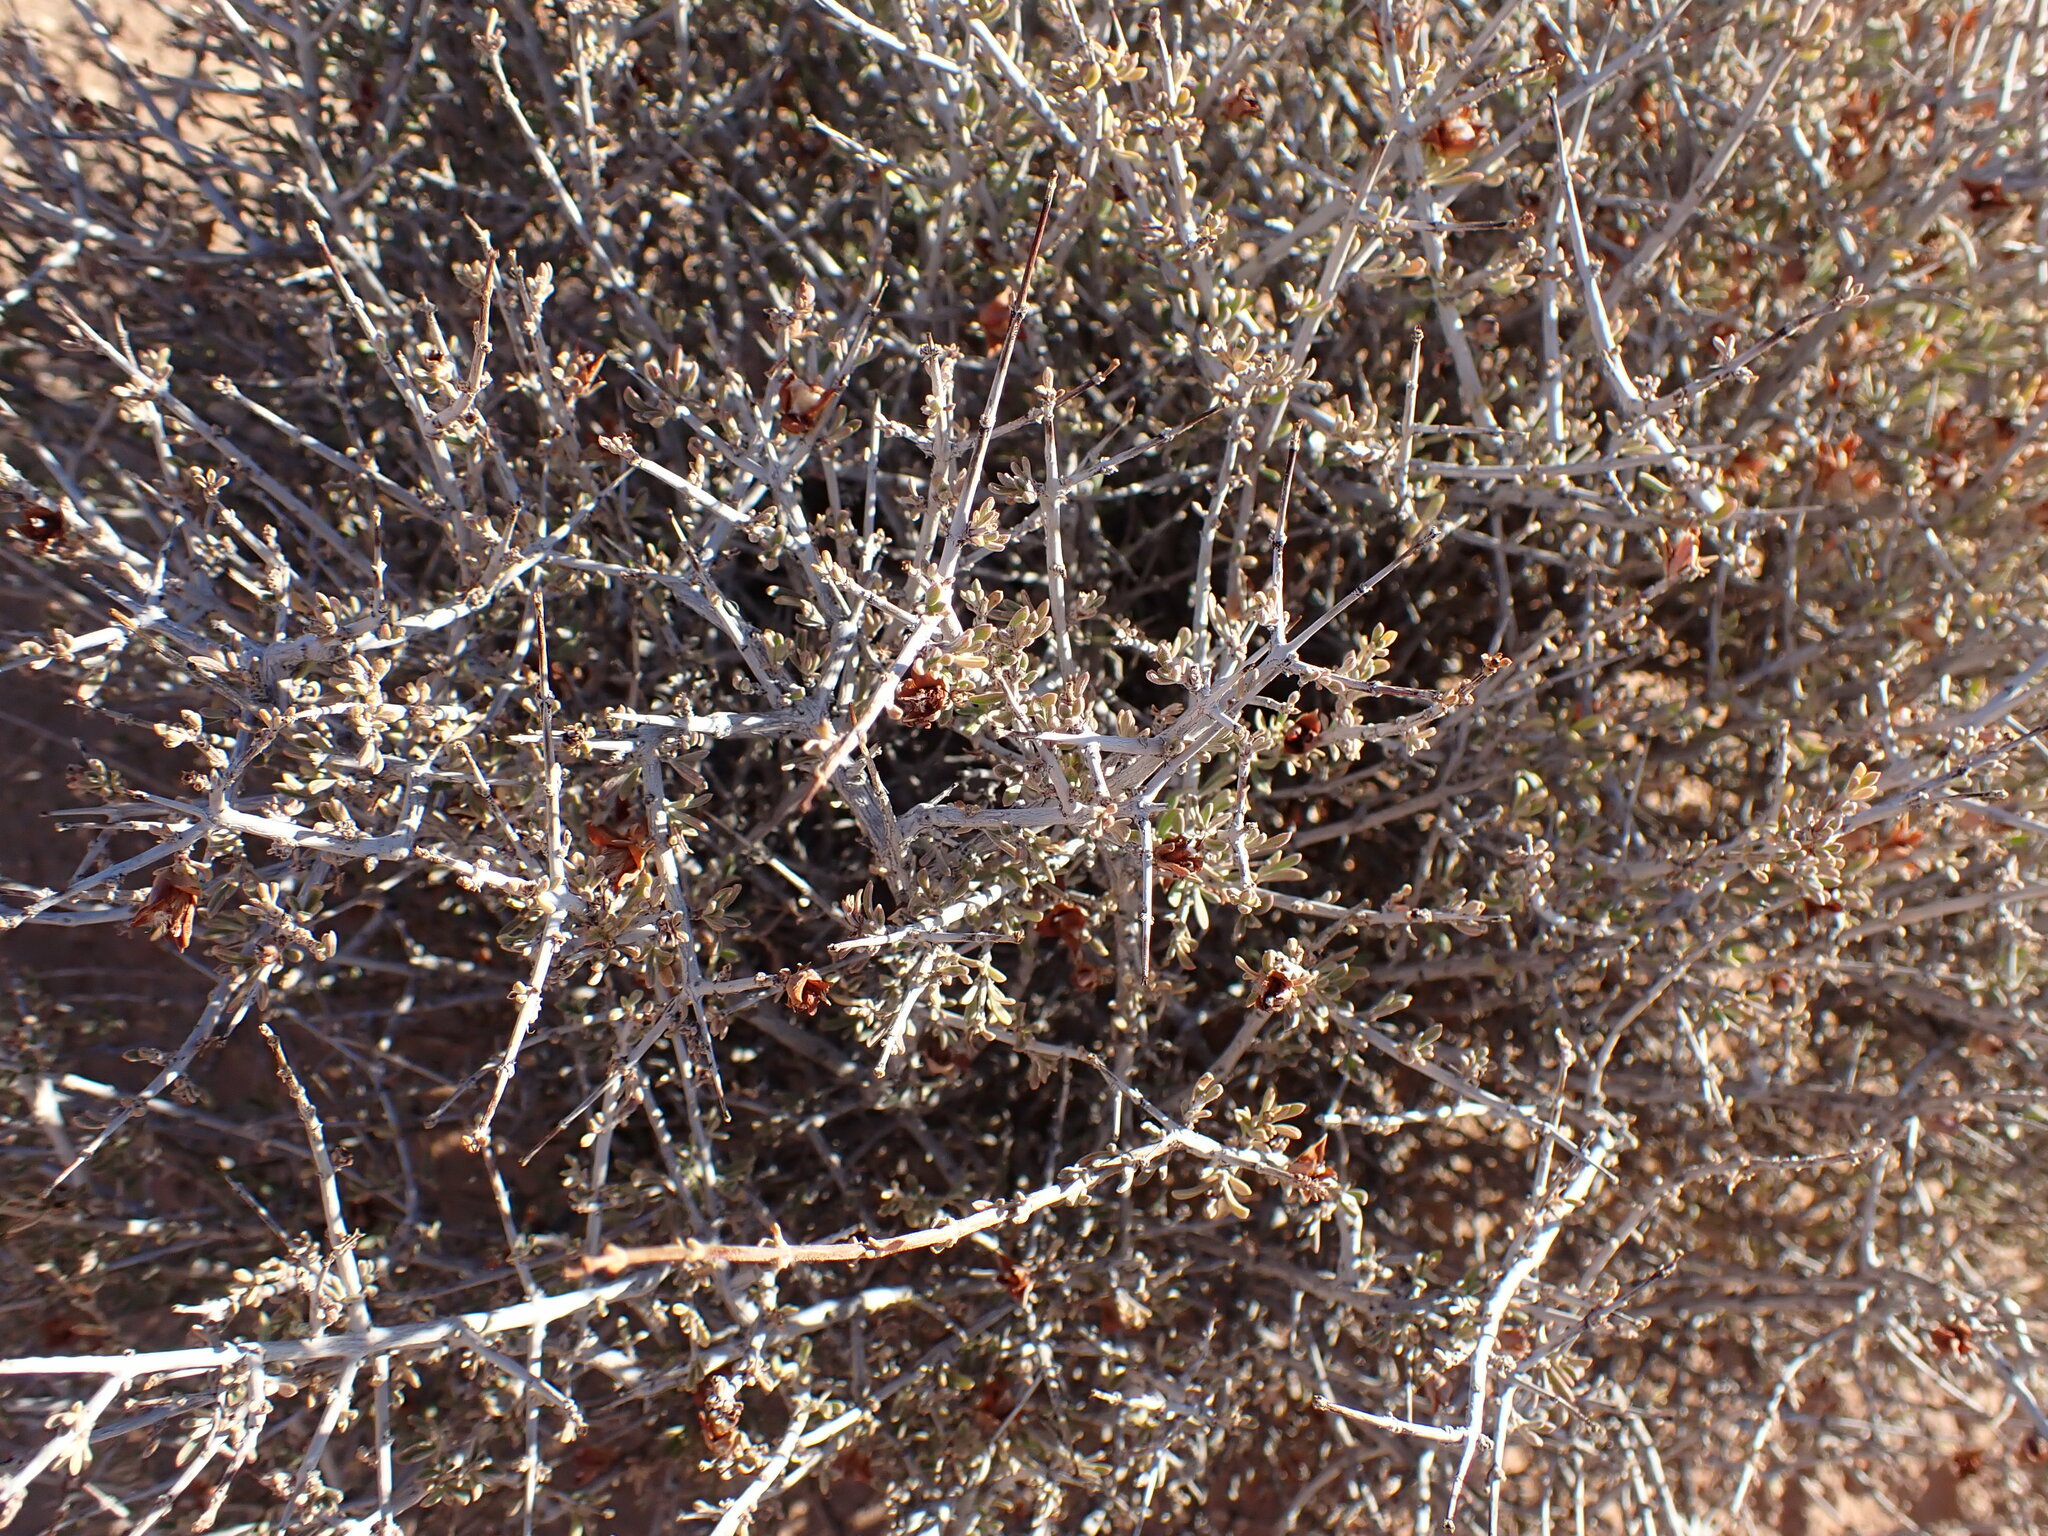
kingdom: Plantae
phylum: Tracheophyta
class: Magnoliopsida
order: Rosales
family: Rosaceae
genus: Coleogyne
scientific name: Coleogyne ramosissima
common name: Blackbrush
